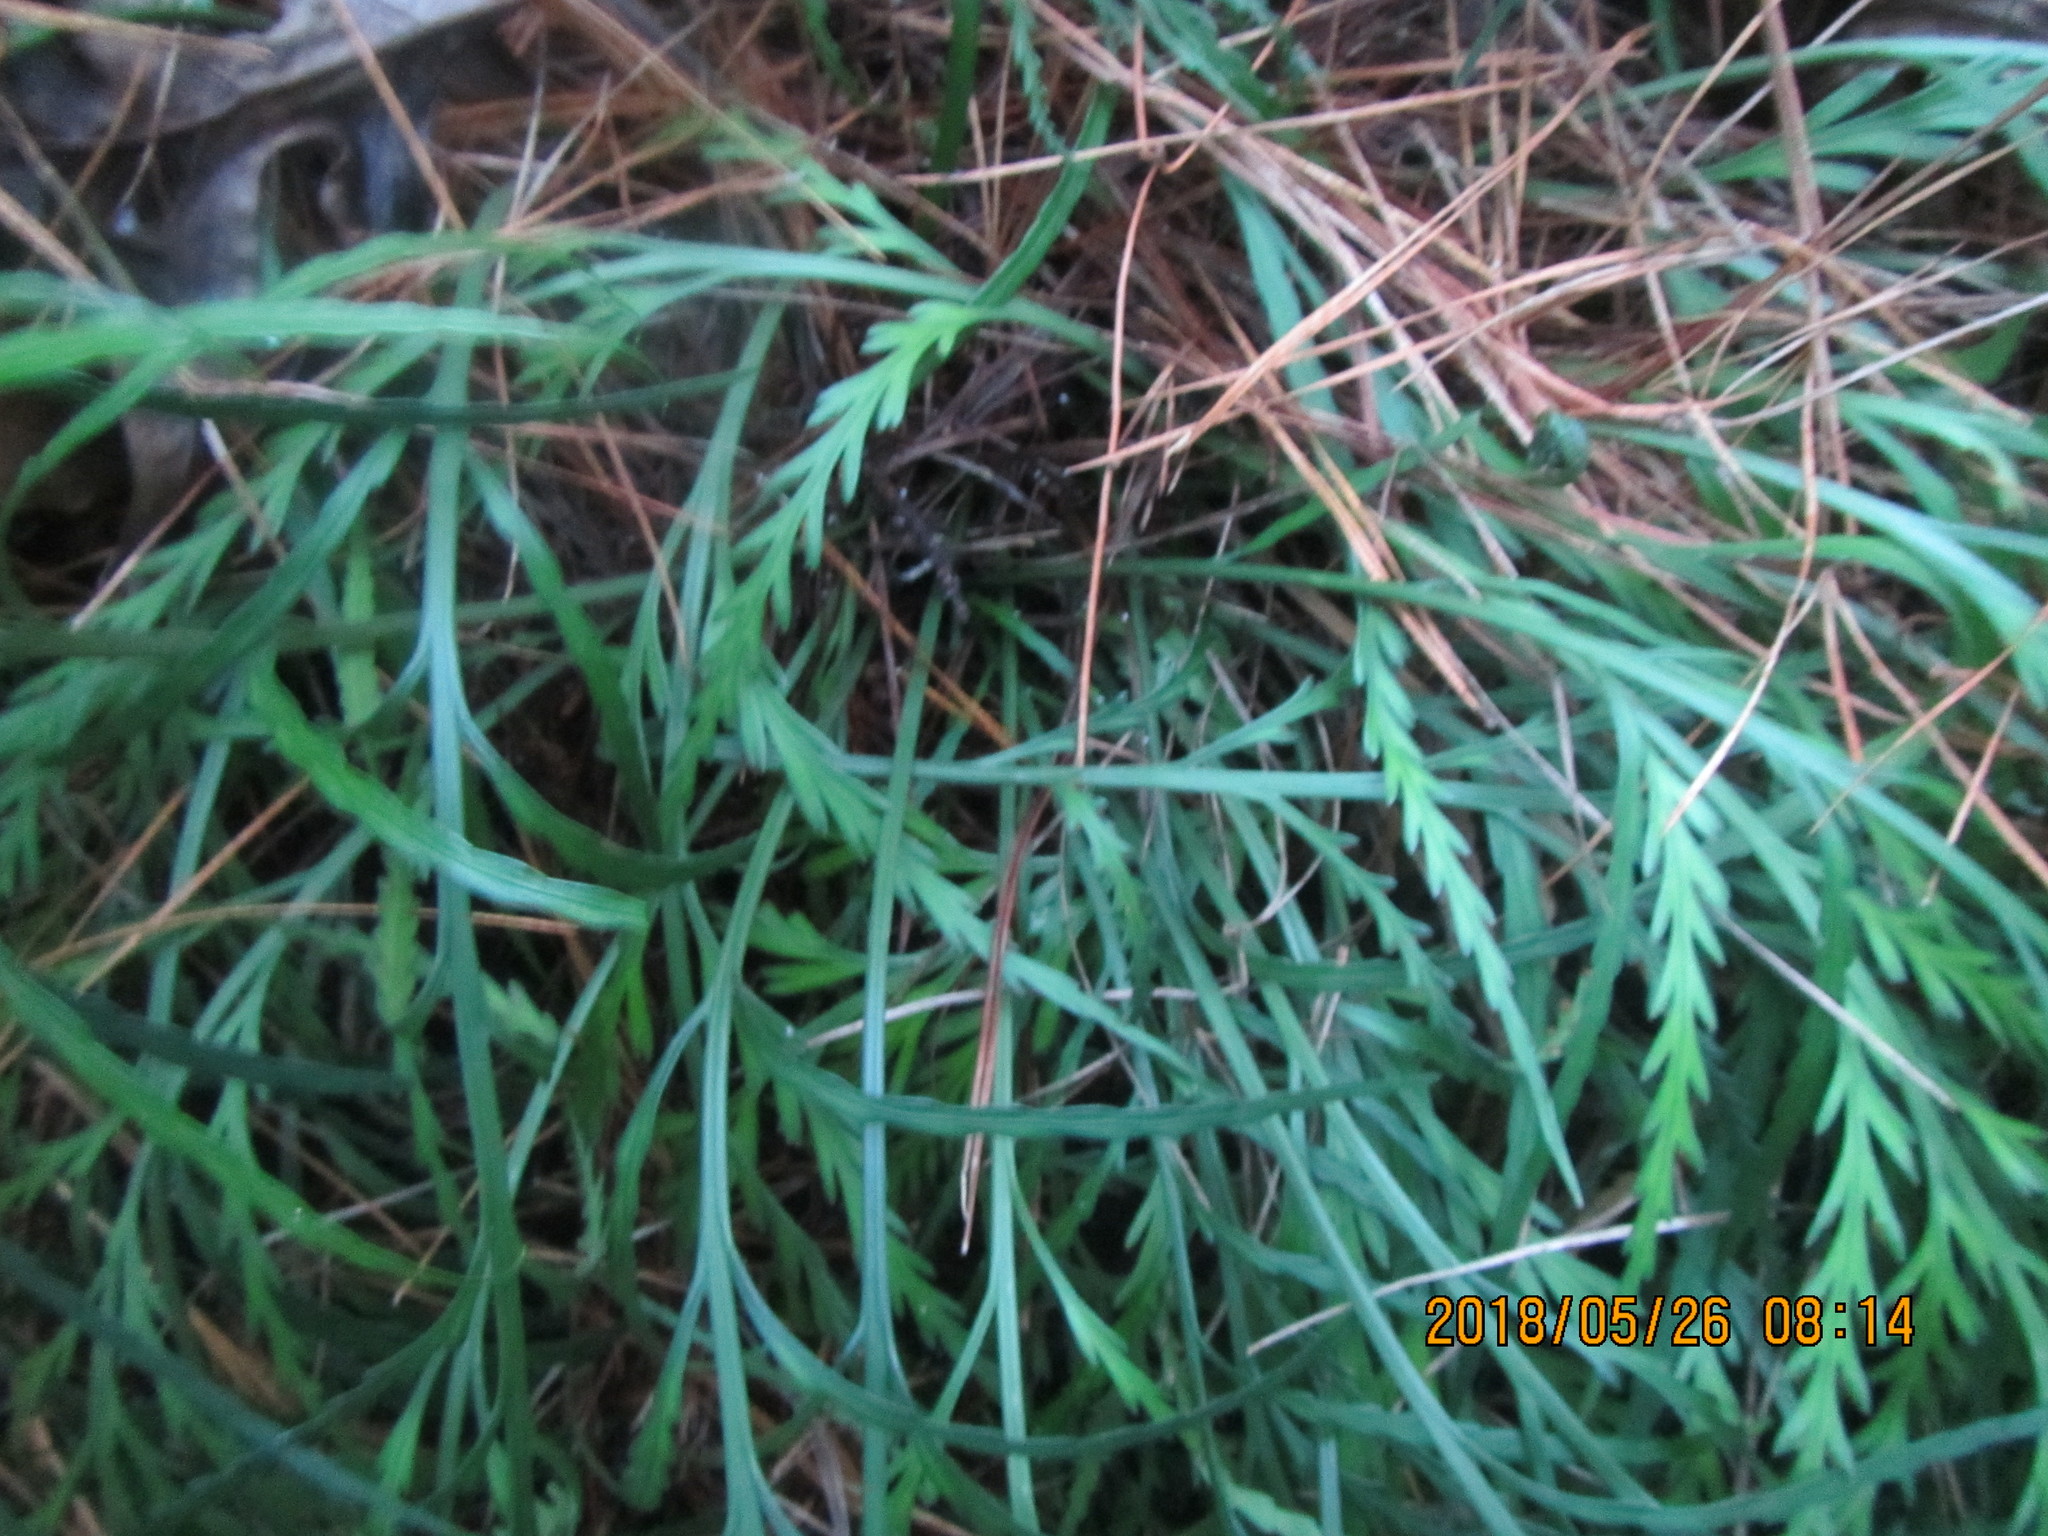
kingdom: Plantae
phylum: Tracheophyta
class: Polypodiopsida
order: Polypodiales
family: Aspleniaceae
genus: Asplenium
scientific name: Asplenium flaccidum
